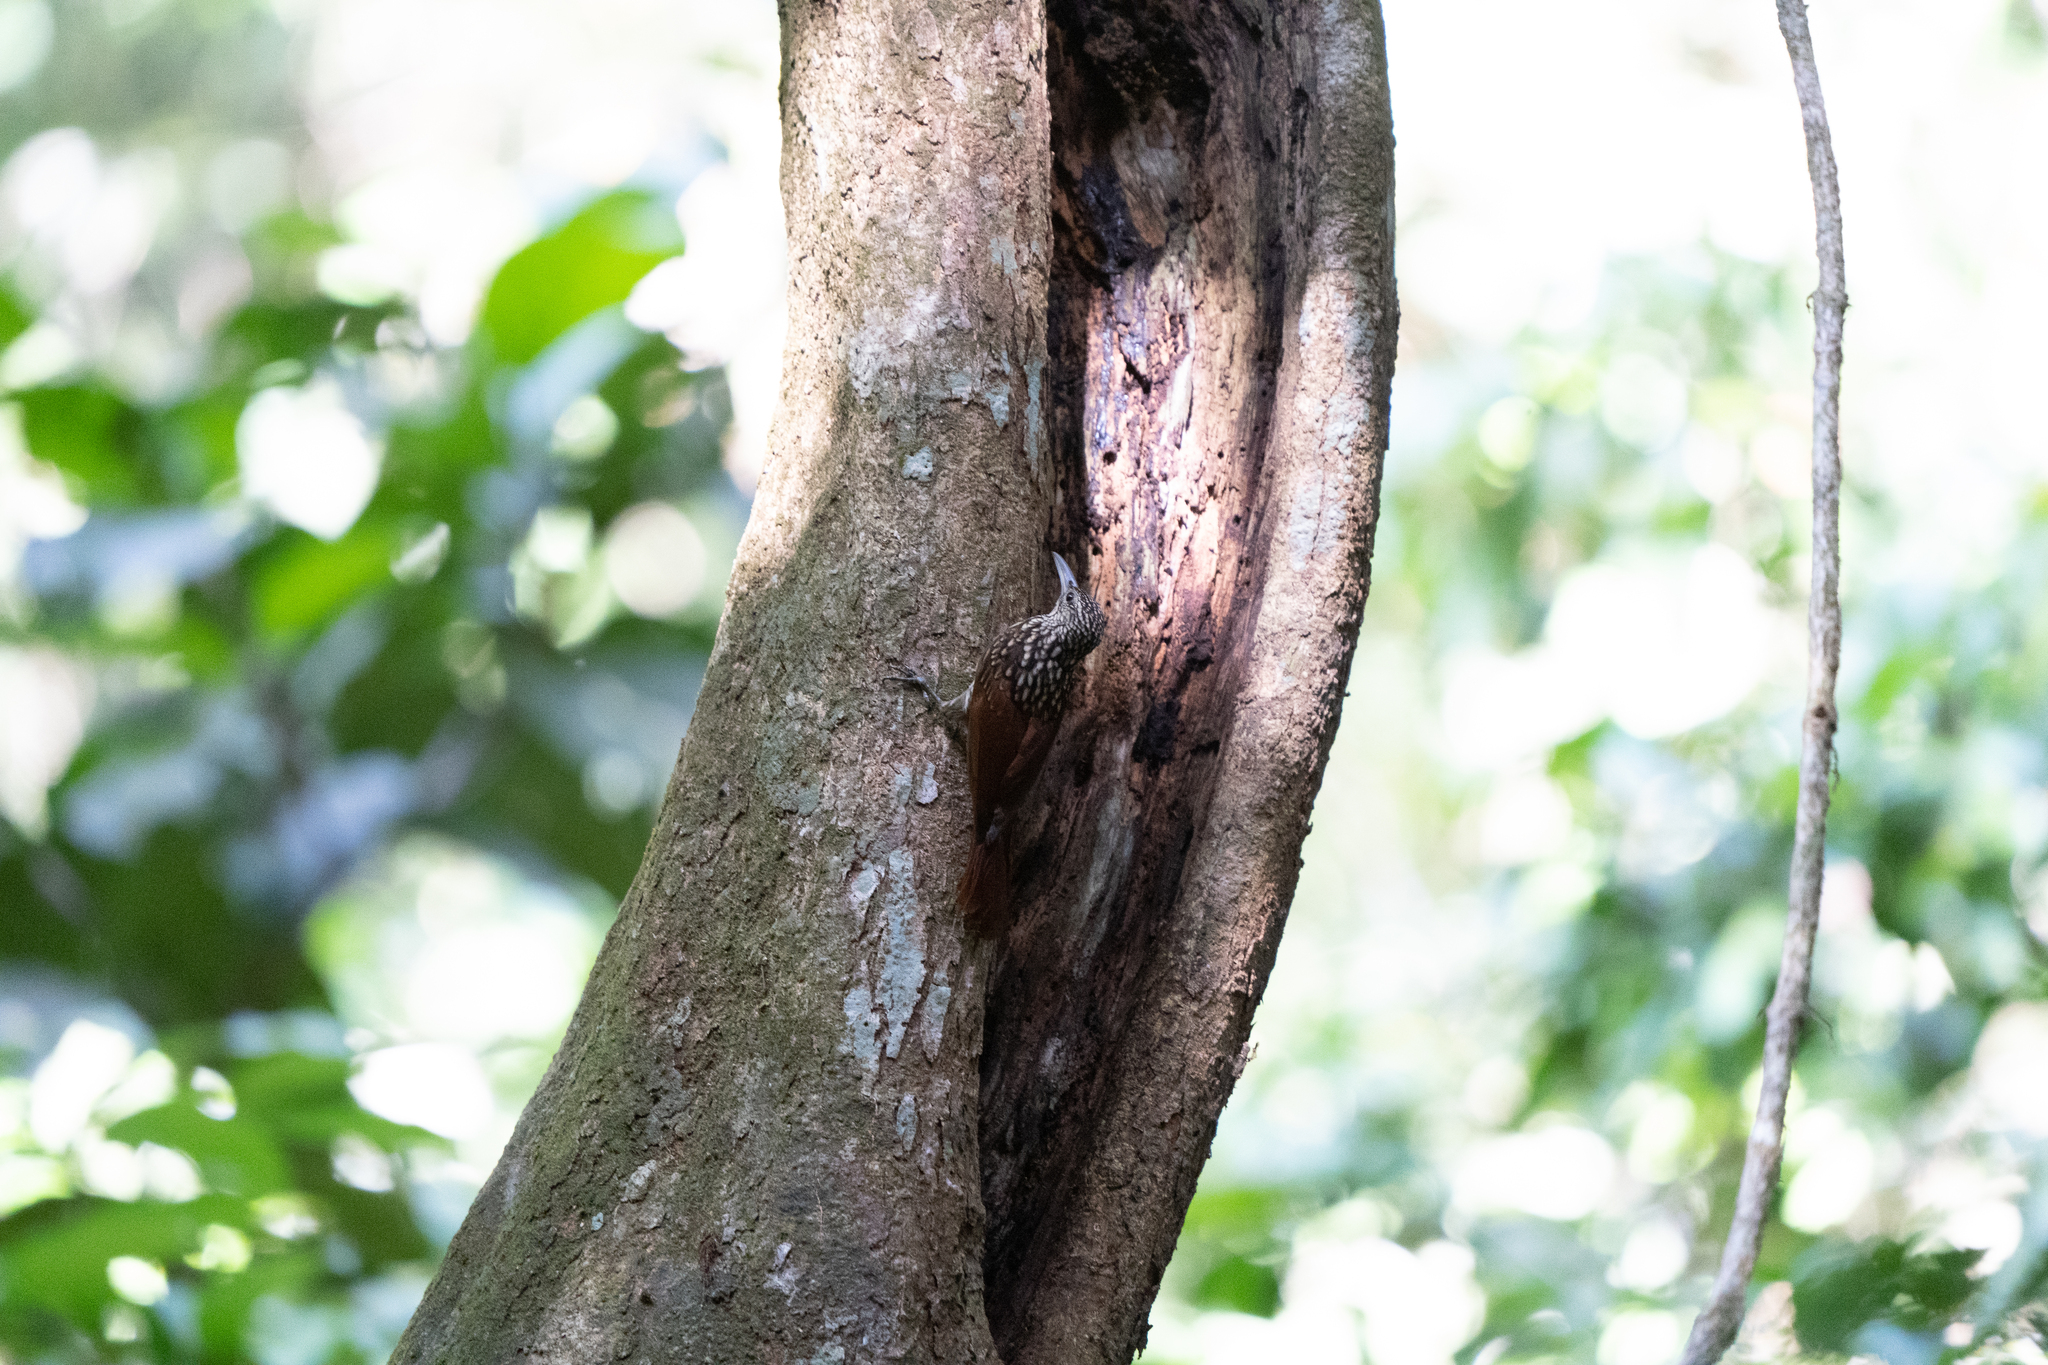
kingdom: Animalia
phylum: Chordata
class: Aves
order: Passeriformes
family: Furnariidae
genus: Xiphorhynchus
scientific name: Xiphorhynchus lachrymosus
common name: Black-striped woodcreeper
